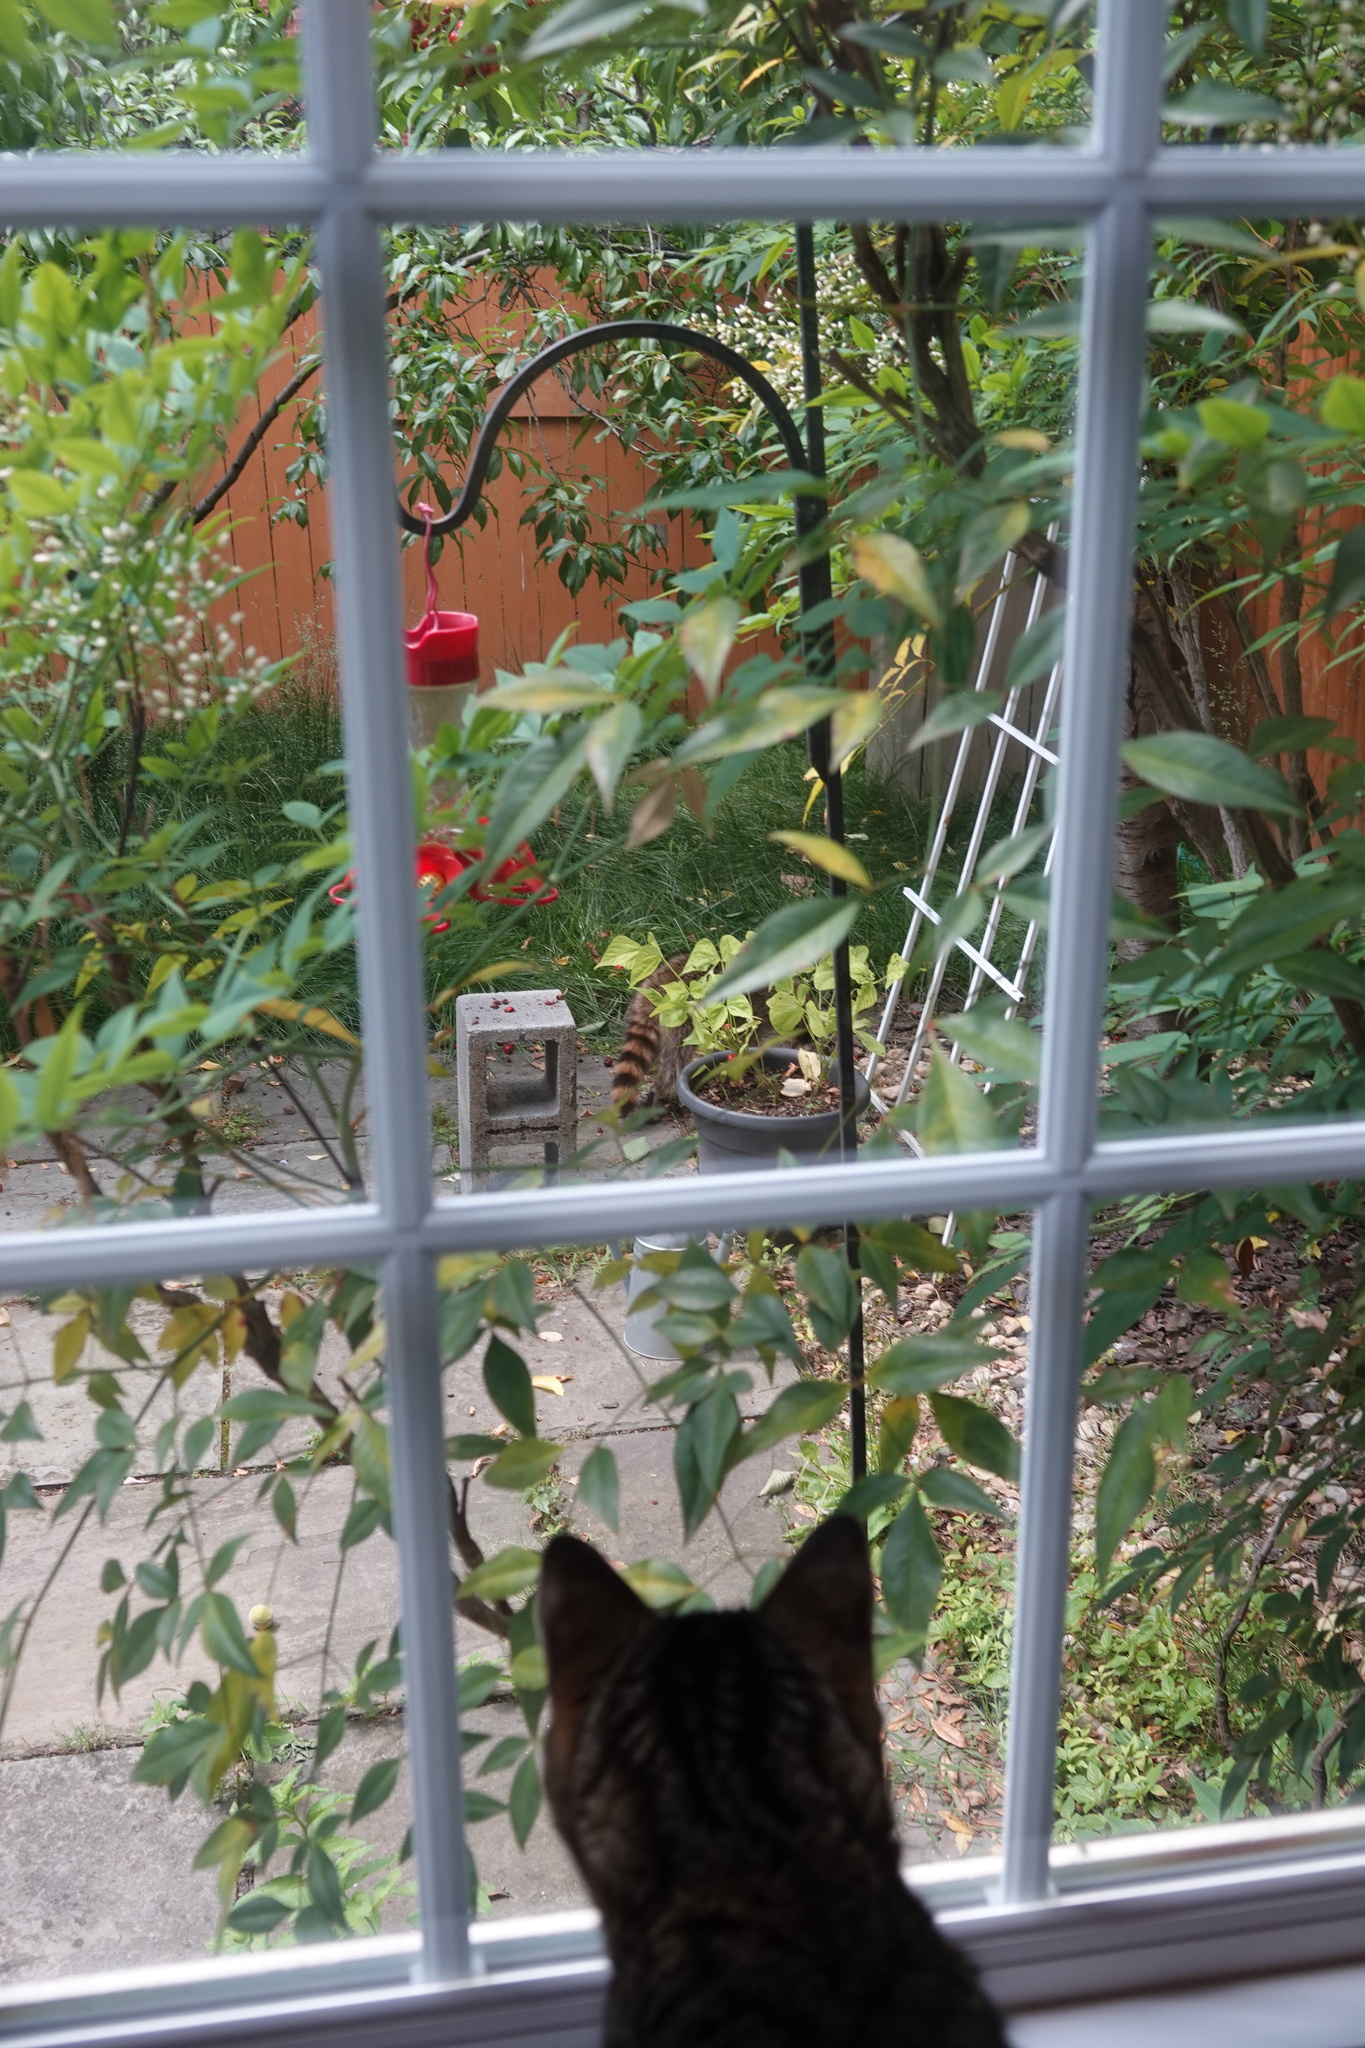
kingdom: Animalia
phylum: Chordata
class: Mammalia
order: Carnivora
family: Procyonidae
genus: Procyon
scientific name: Procyon lotor
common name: Raccoon
